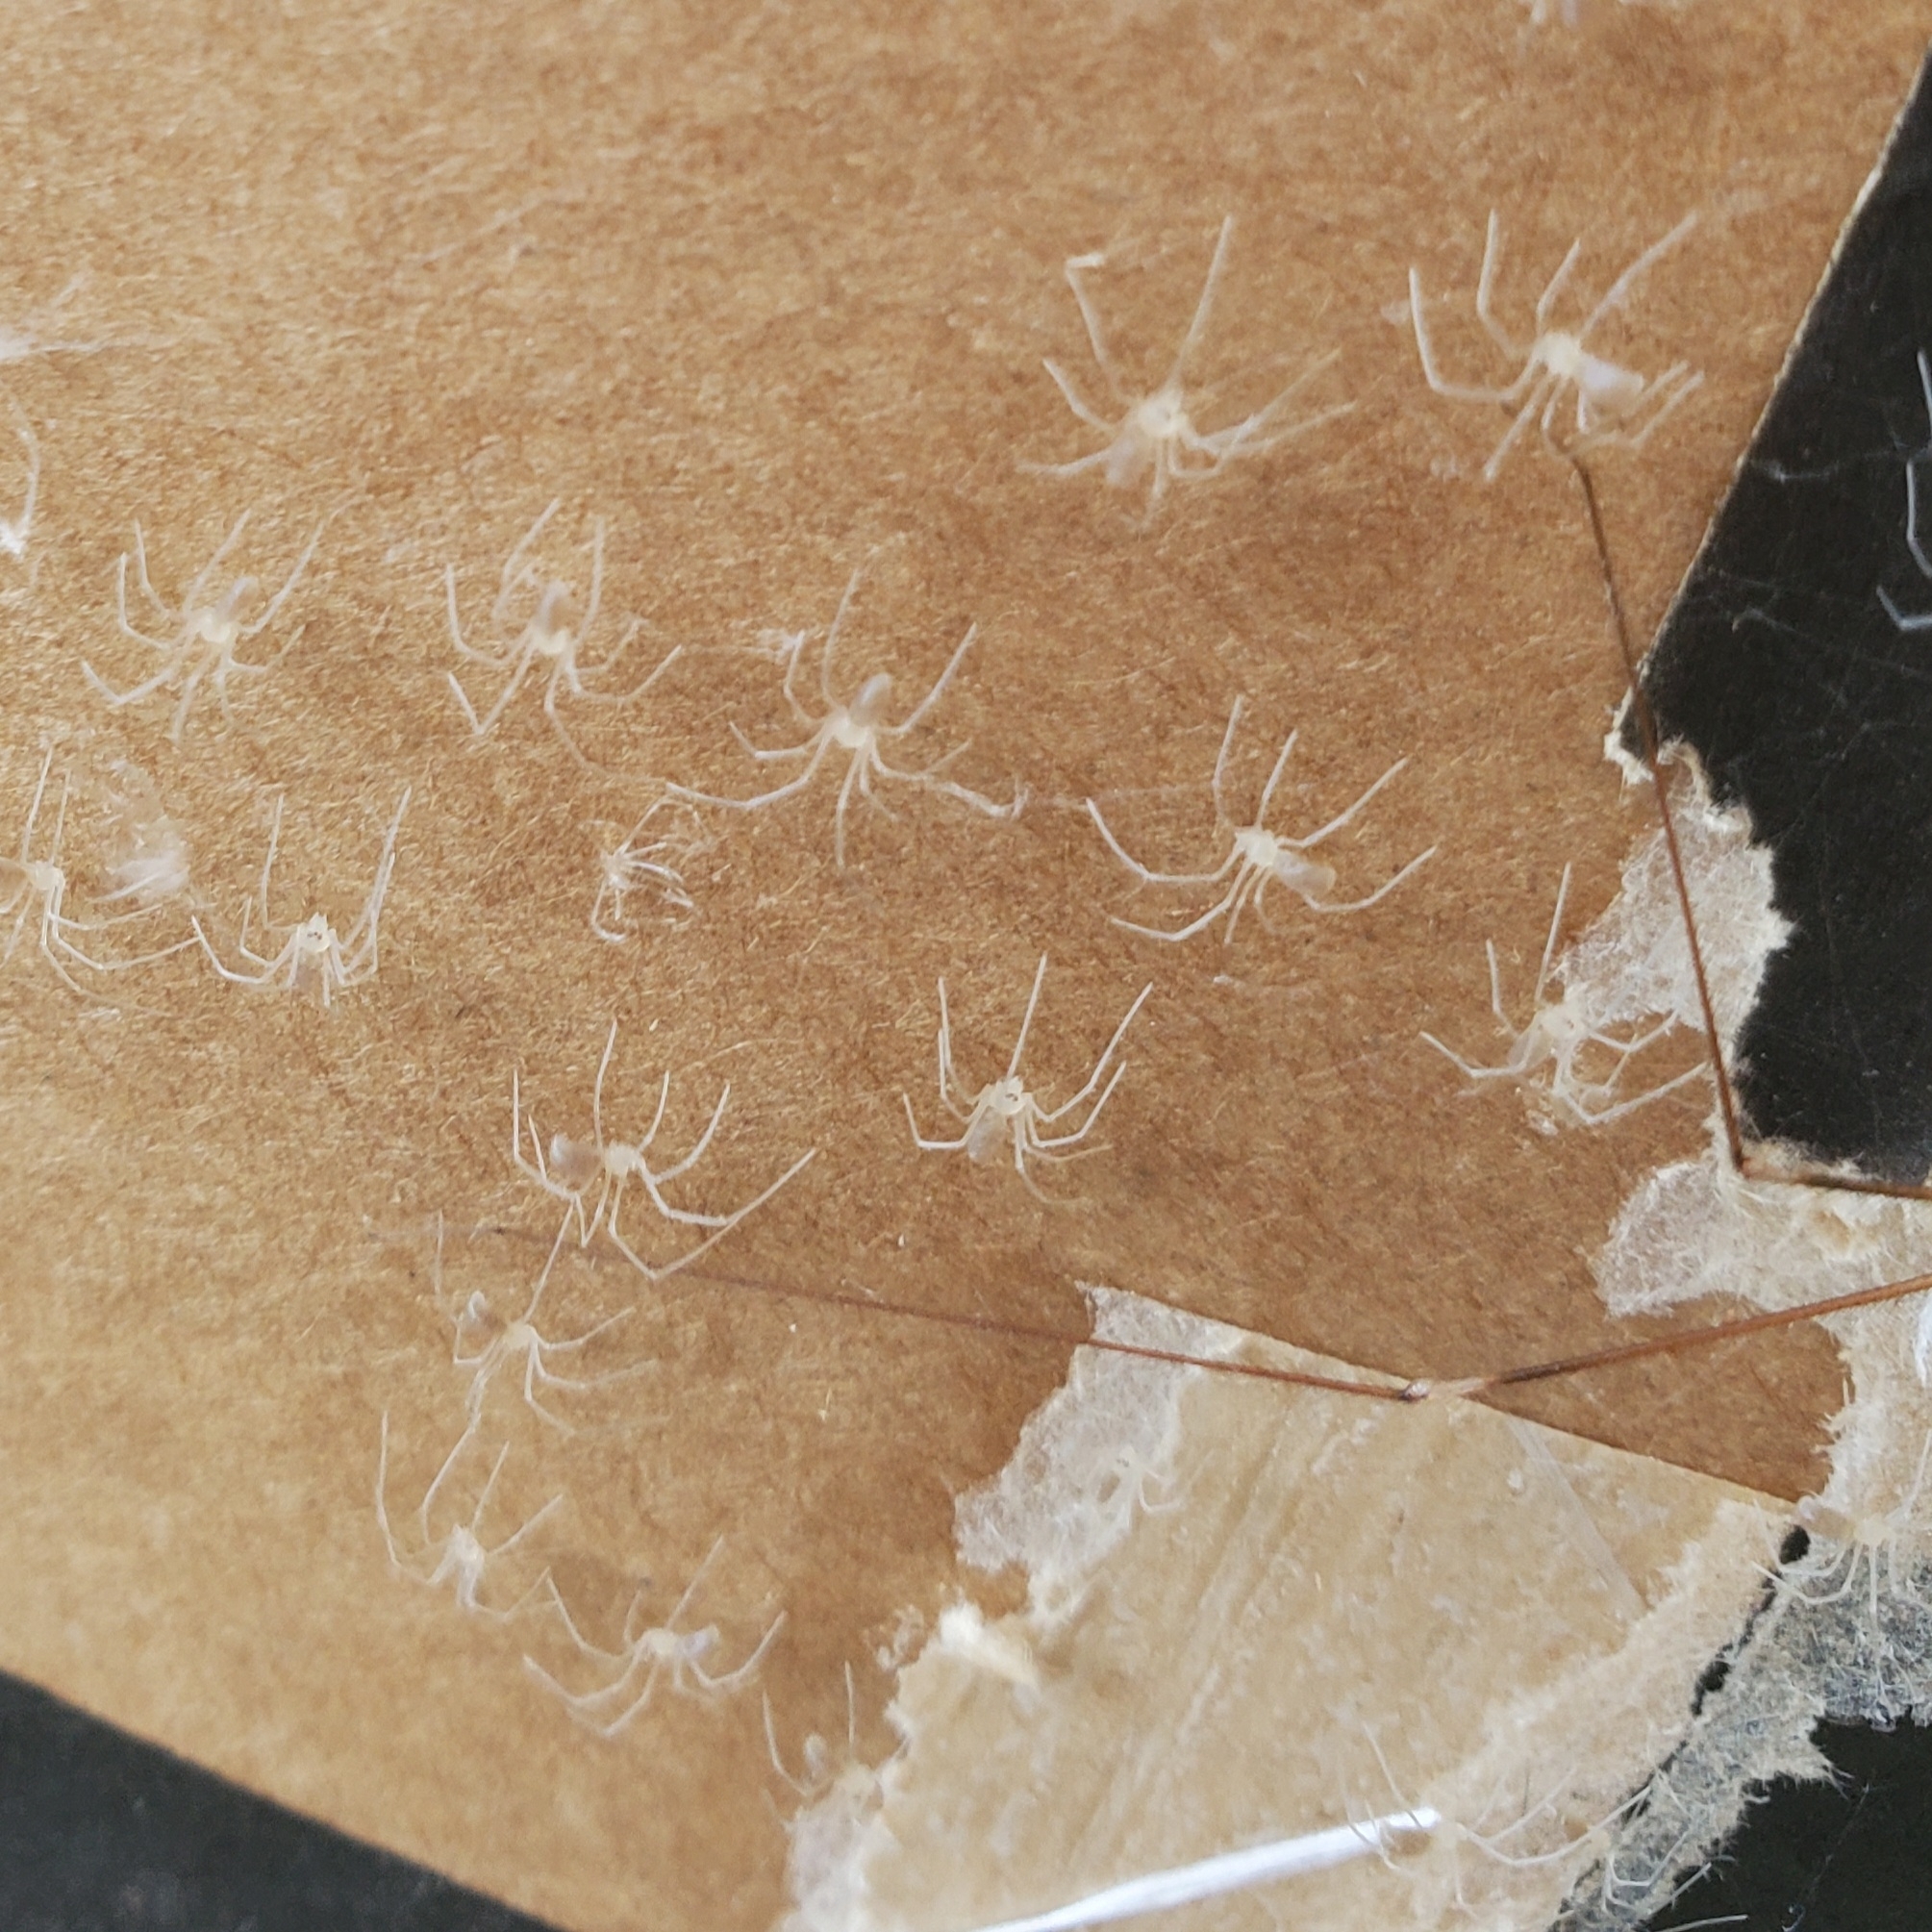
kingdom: Animalia
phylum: Arthropoda
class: Arachnida
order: Araneae
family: Pholcidae
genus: Pholcus
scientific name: Pholcus phalangioides
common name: Longbodied cellar spider
